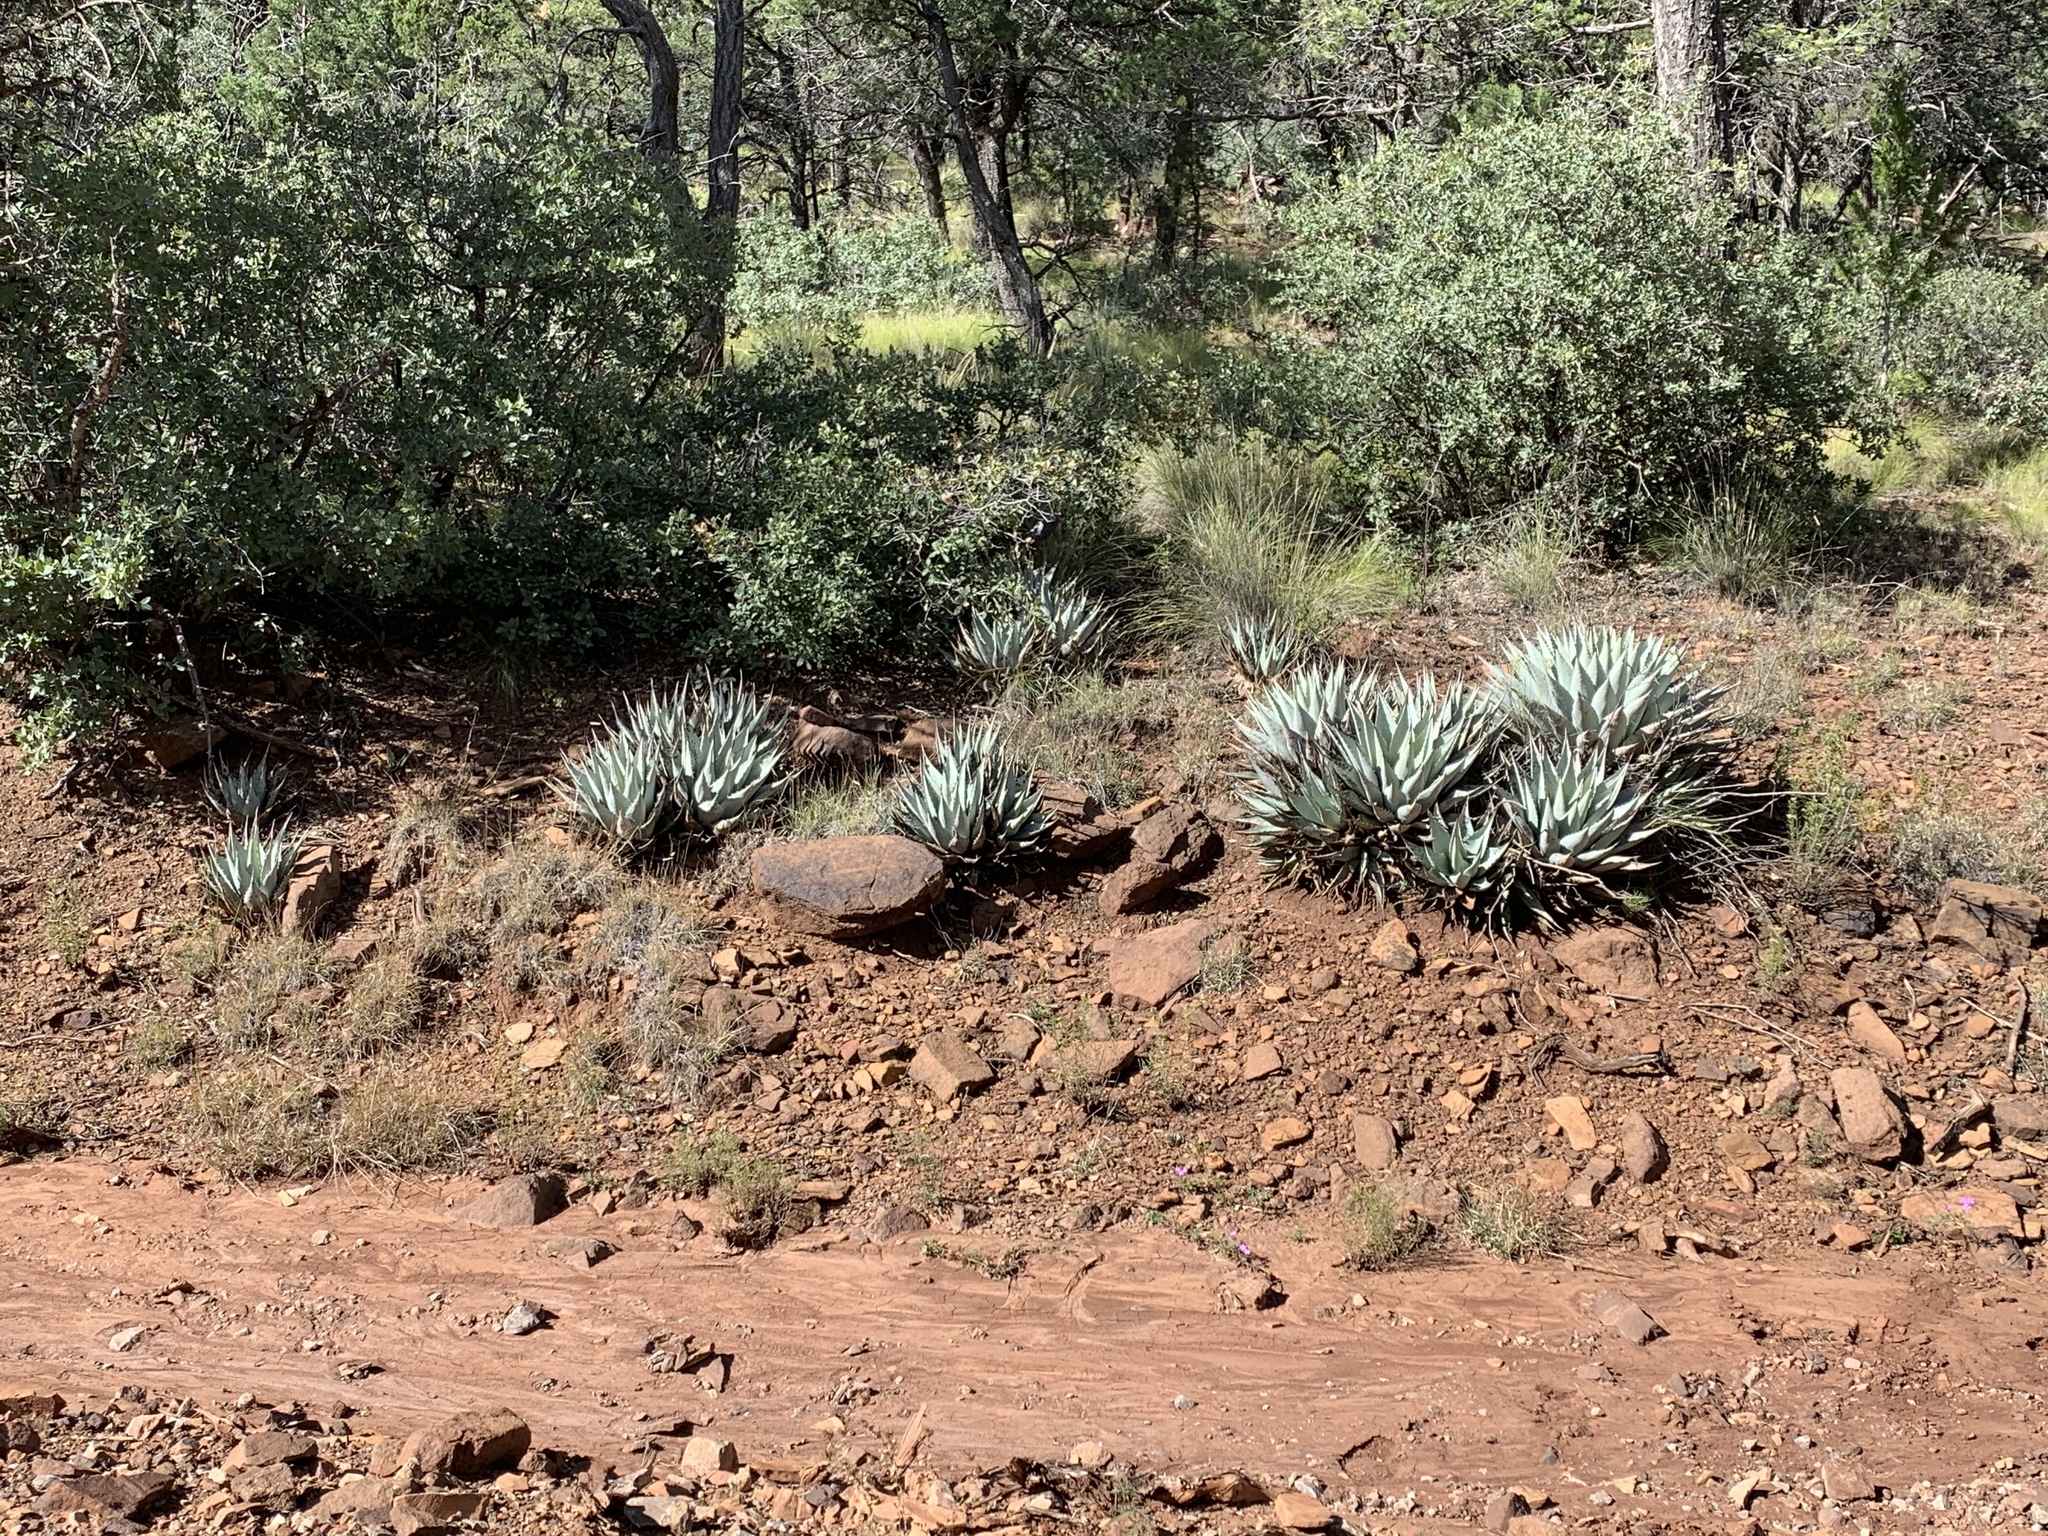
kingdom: Plantae
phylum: Tracheophyta
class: Liliopsida
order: Asparagales
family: Asparagaceae
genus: Agave
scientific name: Agave parryi
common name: Parry's agave
